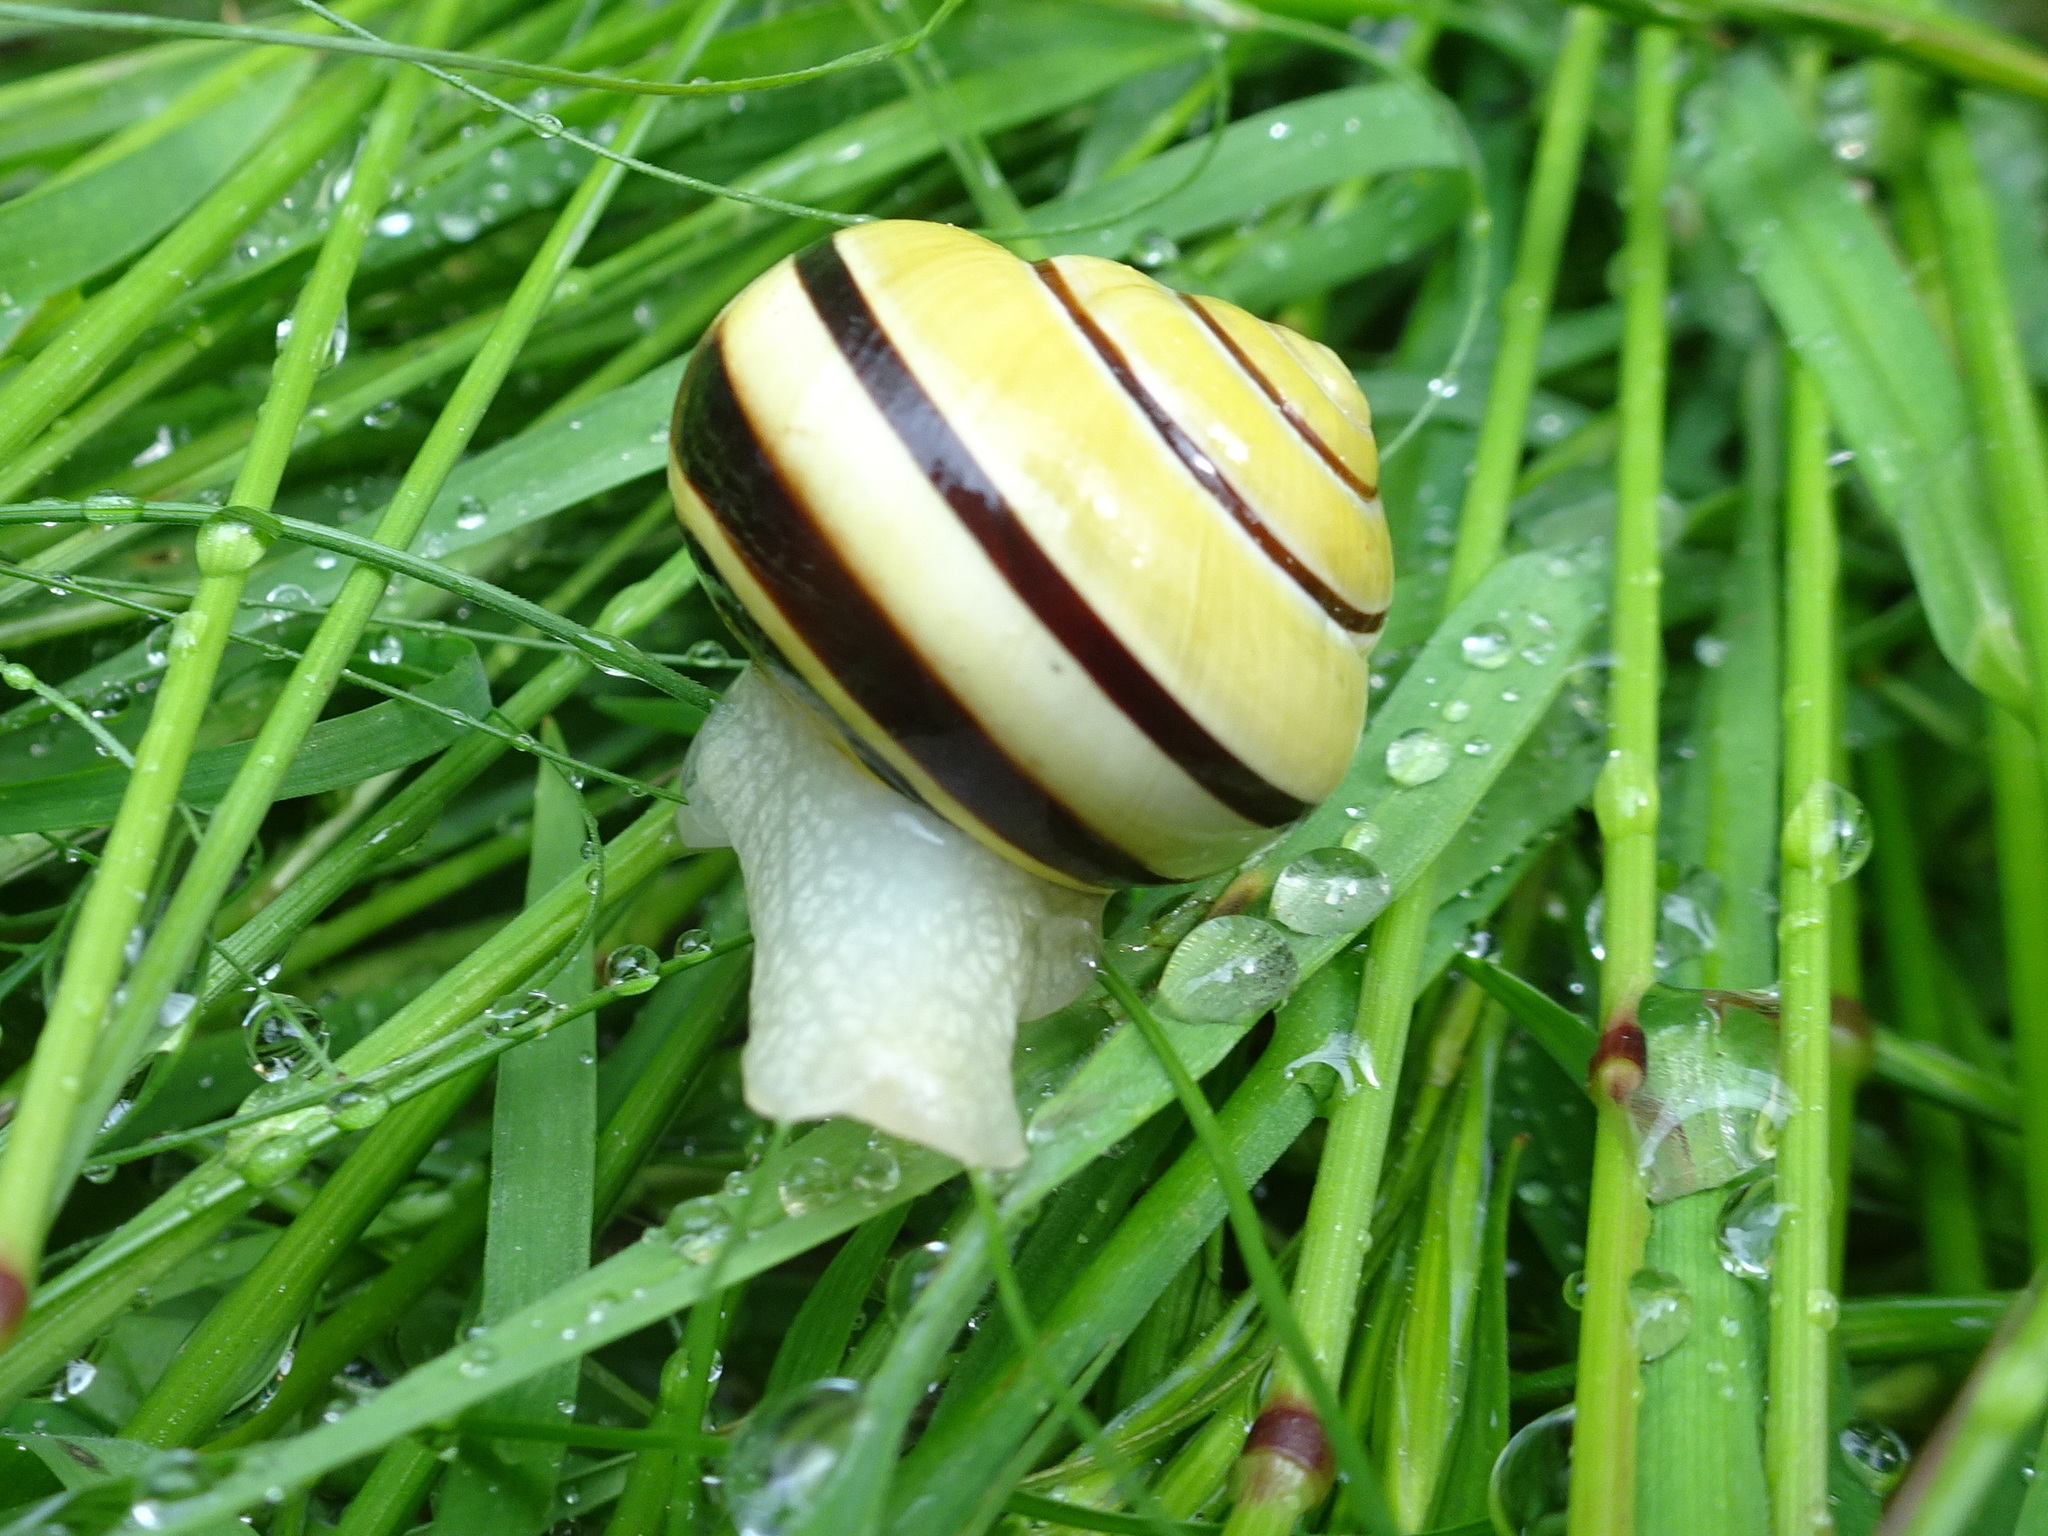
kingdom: Animalia
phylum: Mollusca
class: Gastropoda
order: Stylommatophora
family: Helicidae
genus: Cepaea
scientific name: Cepaea nemoralis
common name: Grovesnail
